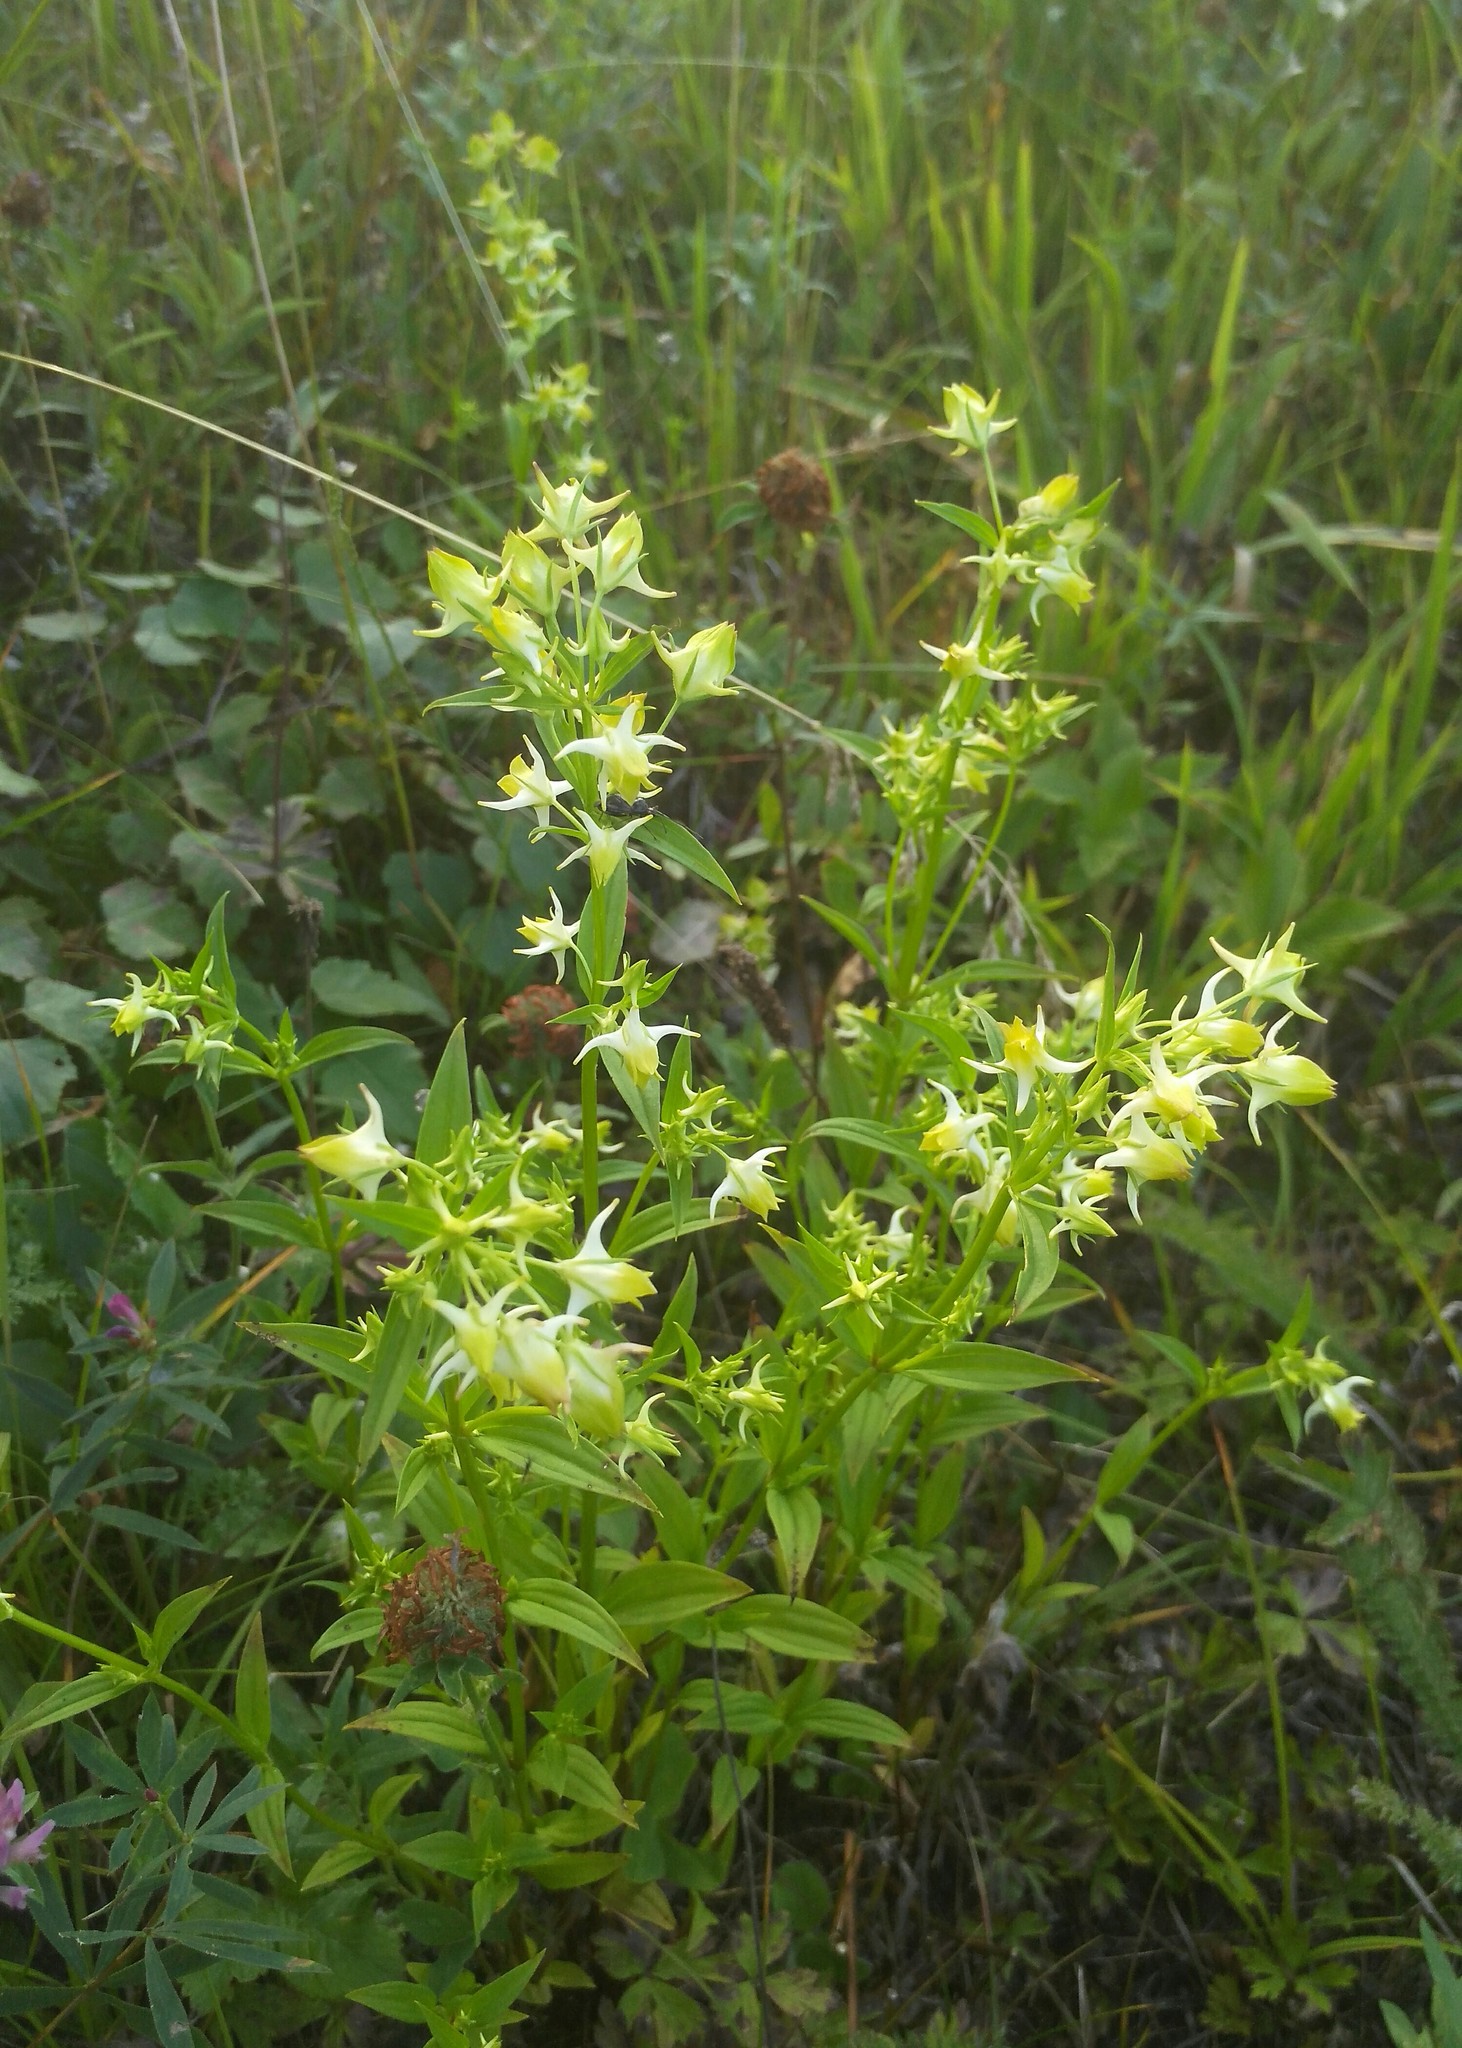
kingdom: Plantae
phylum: Tracheophyta
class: Magnoliopsida
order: Gentianales
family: Gentianaceae
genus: Halenia
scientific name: Halenia corniculata
